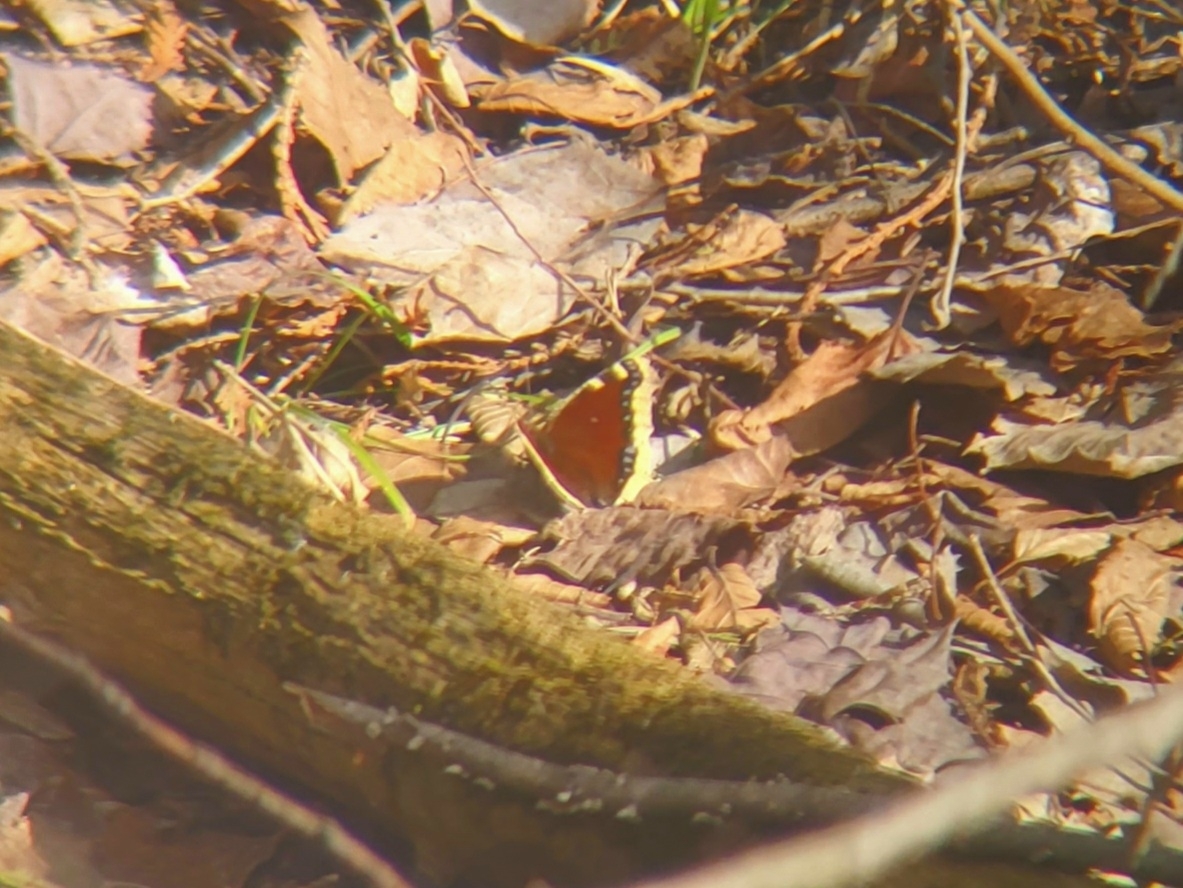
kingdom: Animalia
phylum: Arthropoda
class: Insecta
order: Lepidoptera
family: Nymphalidae
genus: Nymphalis
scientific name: Nymphalis antiopa
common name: Camberwell beauty
